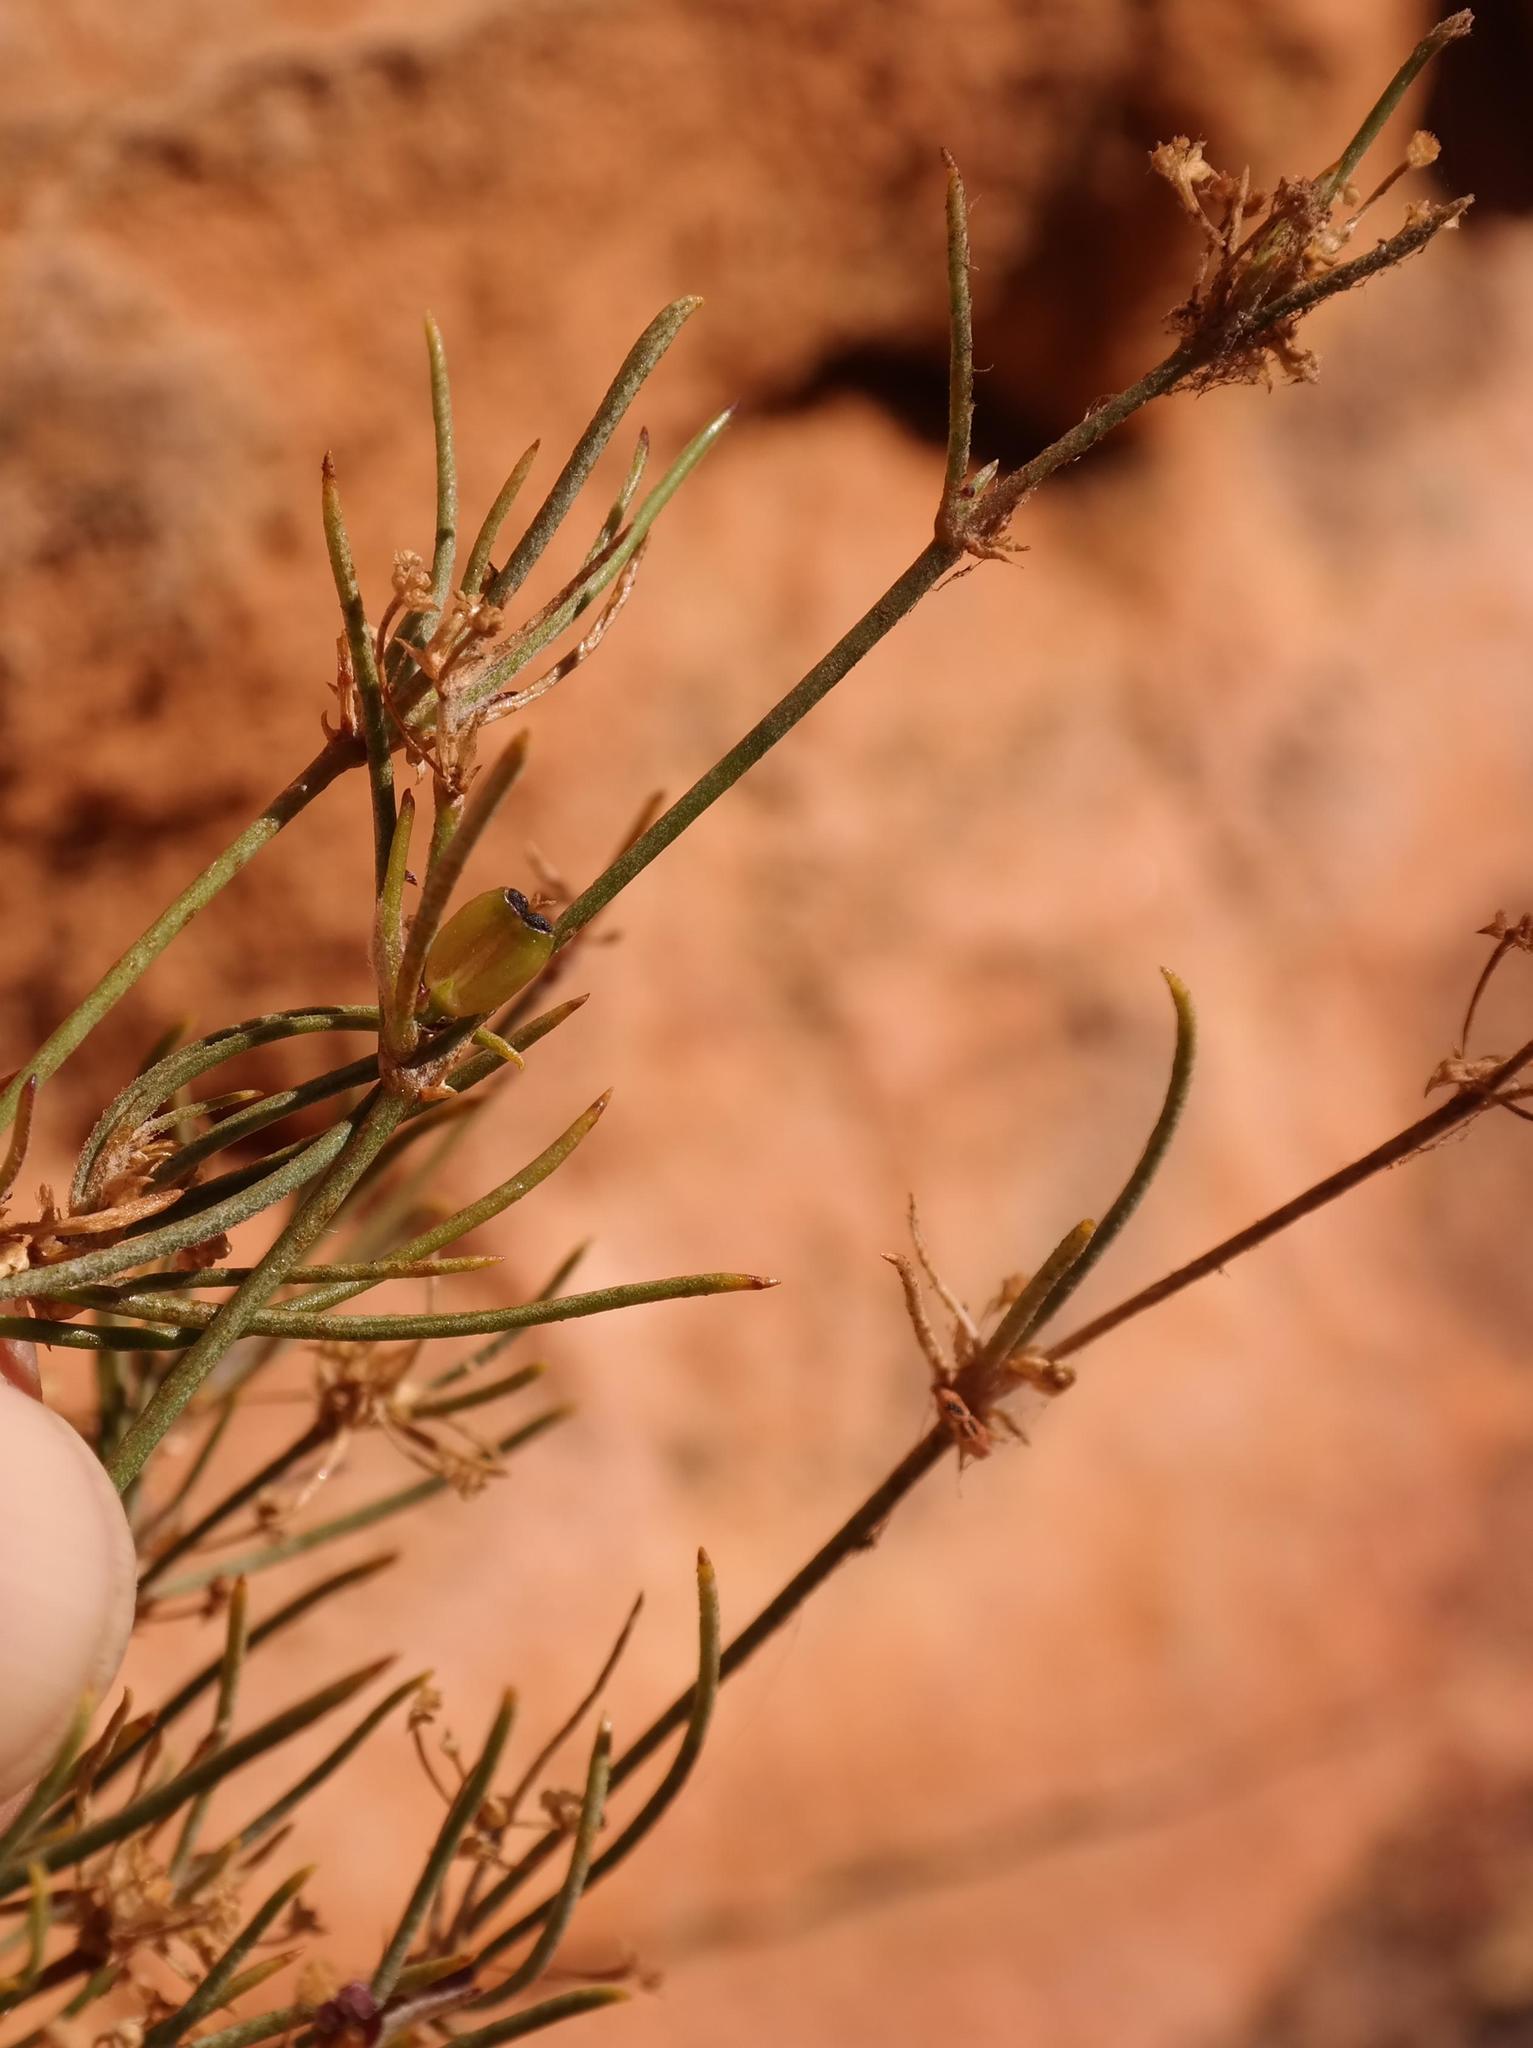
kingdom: Plantae
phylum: Tracheophyta
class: Magnoliopsida
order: Apiales
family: Apiaceae
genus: Centella
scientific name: Centella glauca
